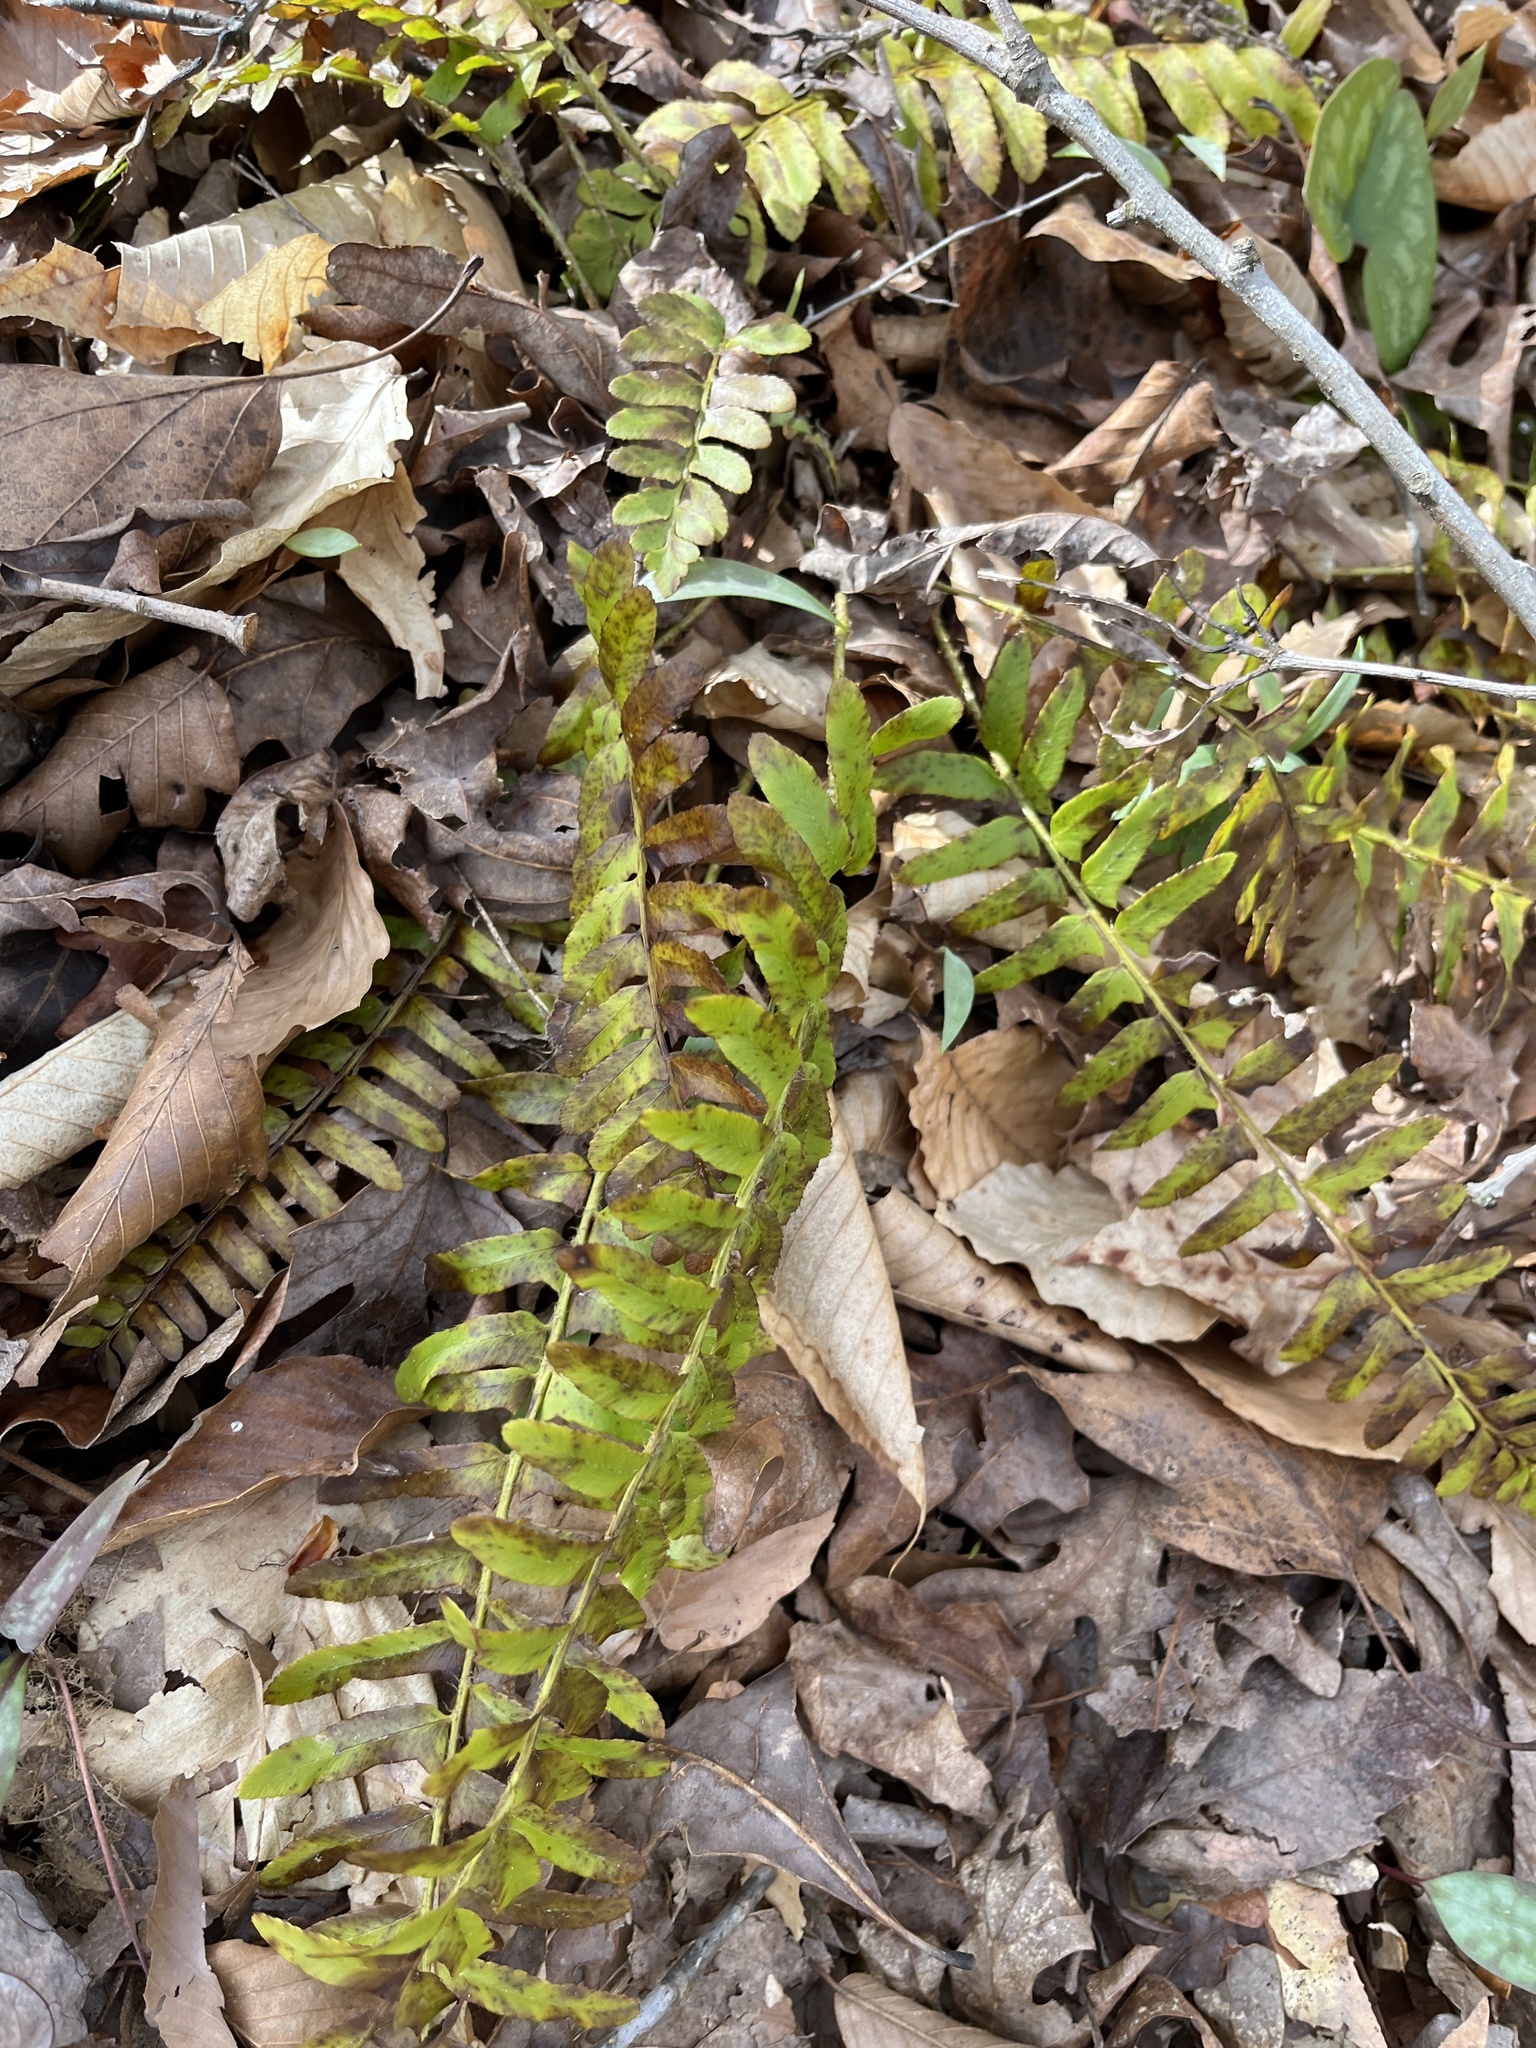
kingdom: Plantae
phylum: Tracheophyta
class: Polypodiopsida
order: Polypodiales
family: Dryopteridaceae
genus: Polystichum
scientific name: Polystichum acrostichoides
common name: Christmas fern
